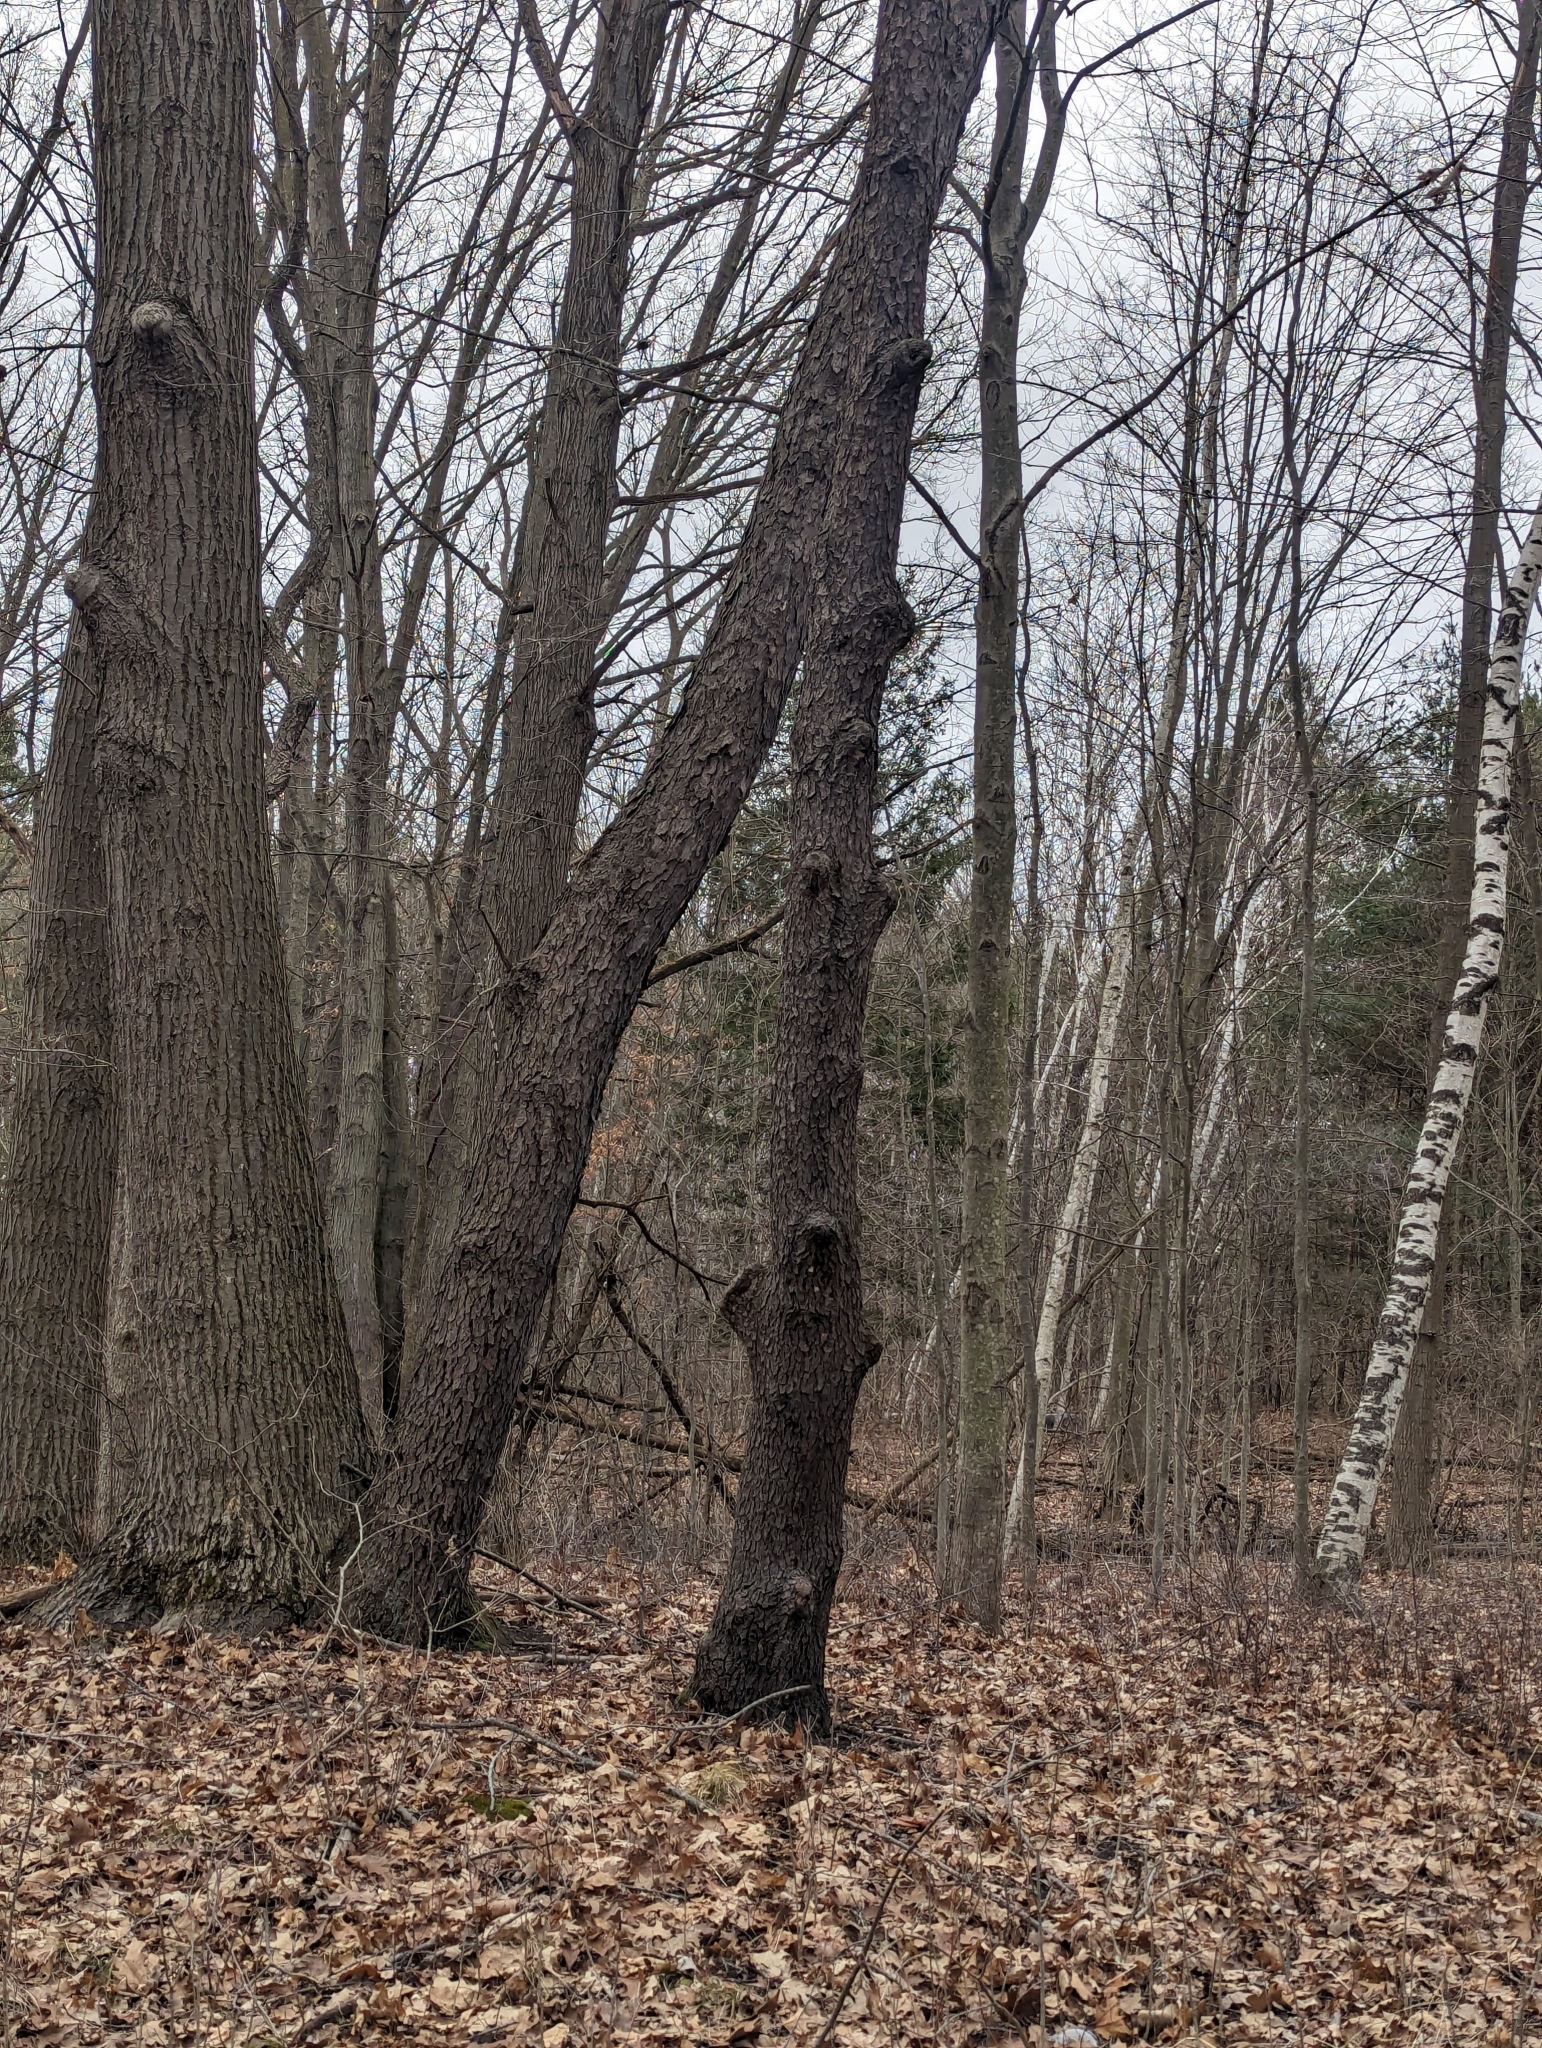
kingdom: Plantae
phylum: Tracheophyta
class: Magnoliopsida
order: Rosales
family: Rosaceae
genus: Prunus
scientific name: Prunus serotina
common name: Black cherry
